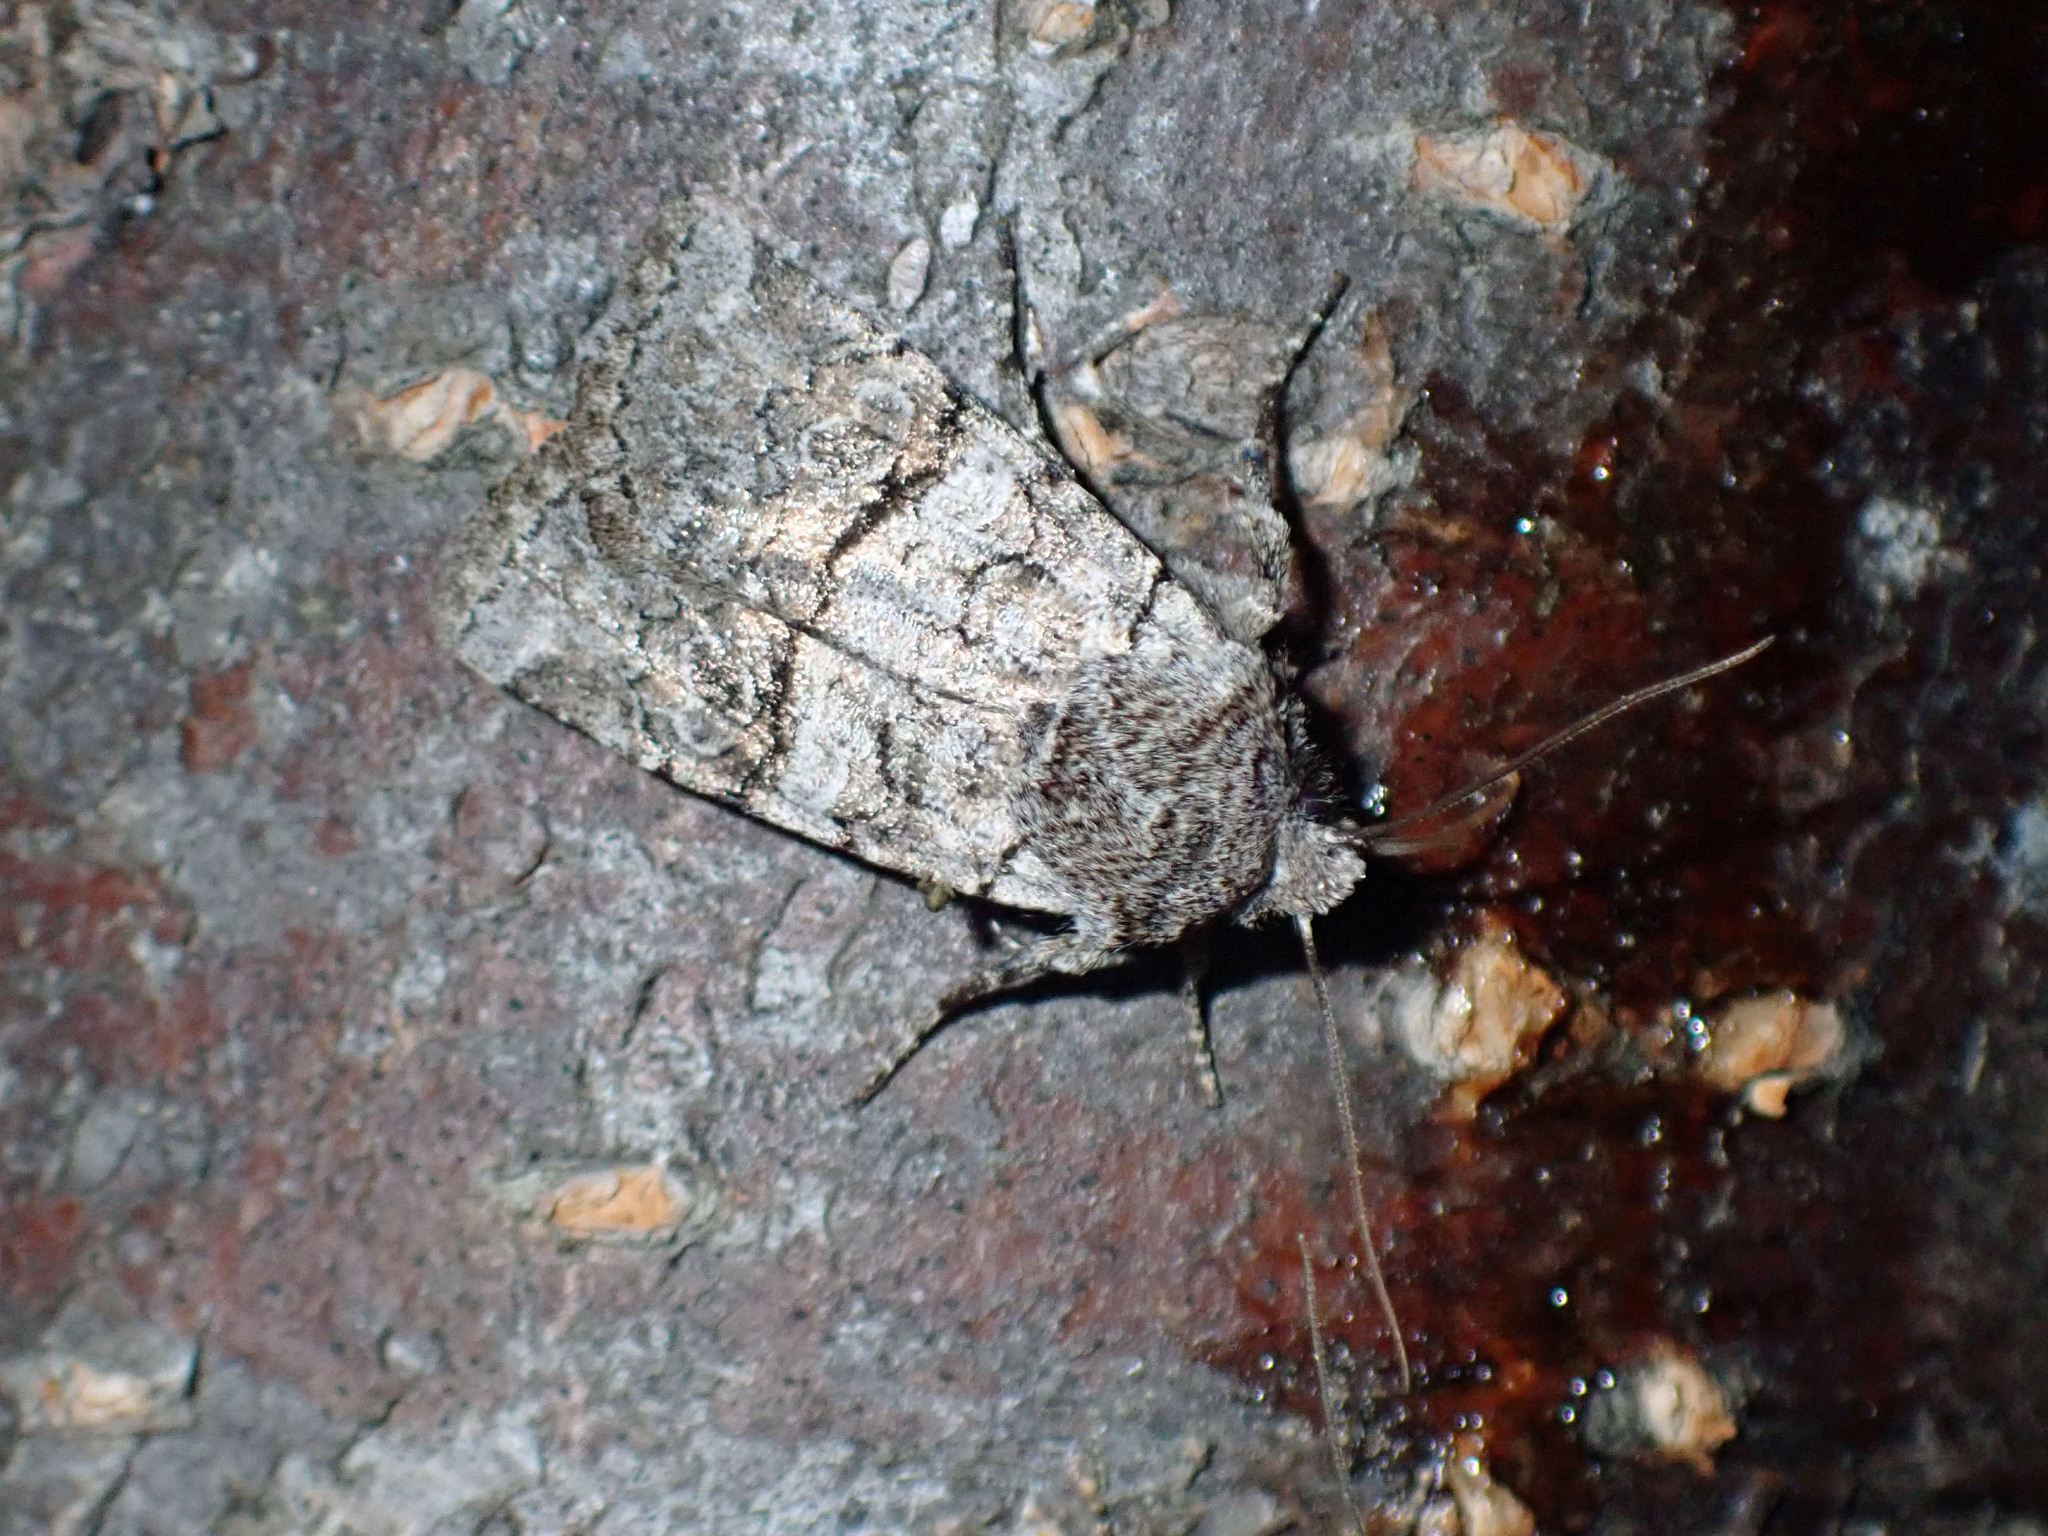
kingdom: Animalia
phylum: Arthropoda
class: Insecta
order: Lepidoptera
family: Noctuidae
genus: Litholomia
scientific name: Litholomia napaea
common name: False pinion moth
